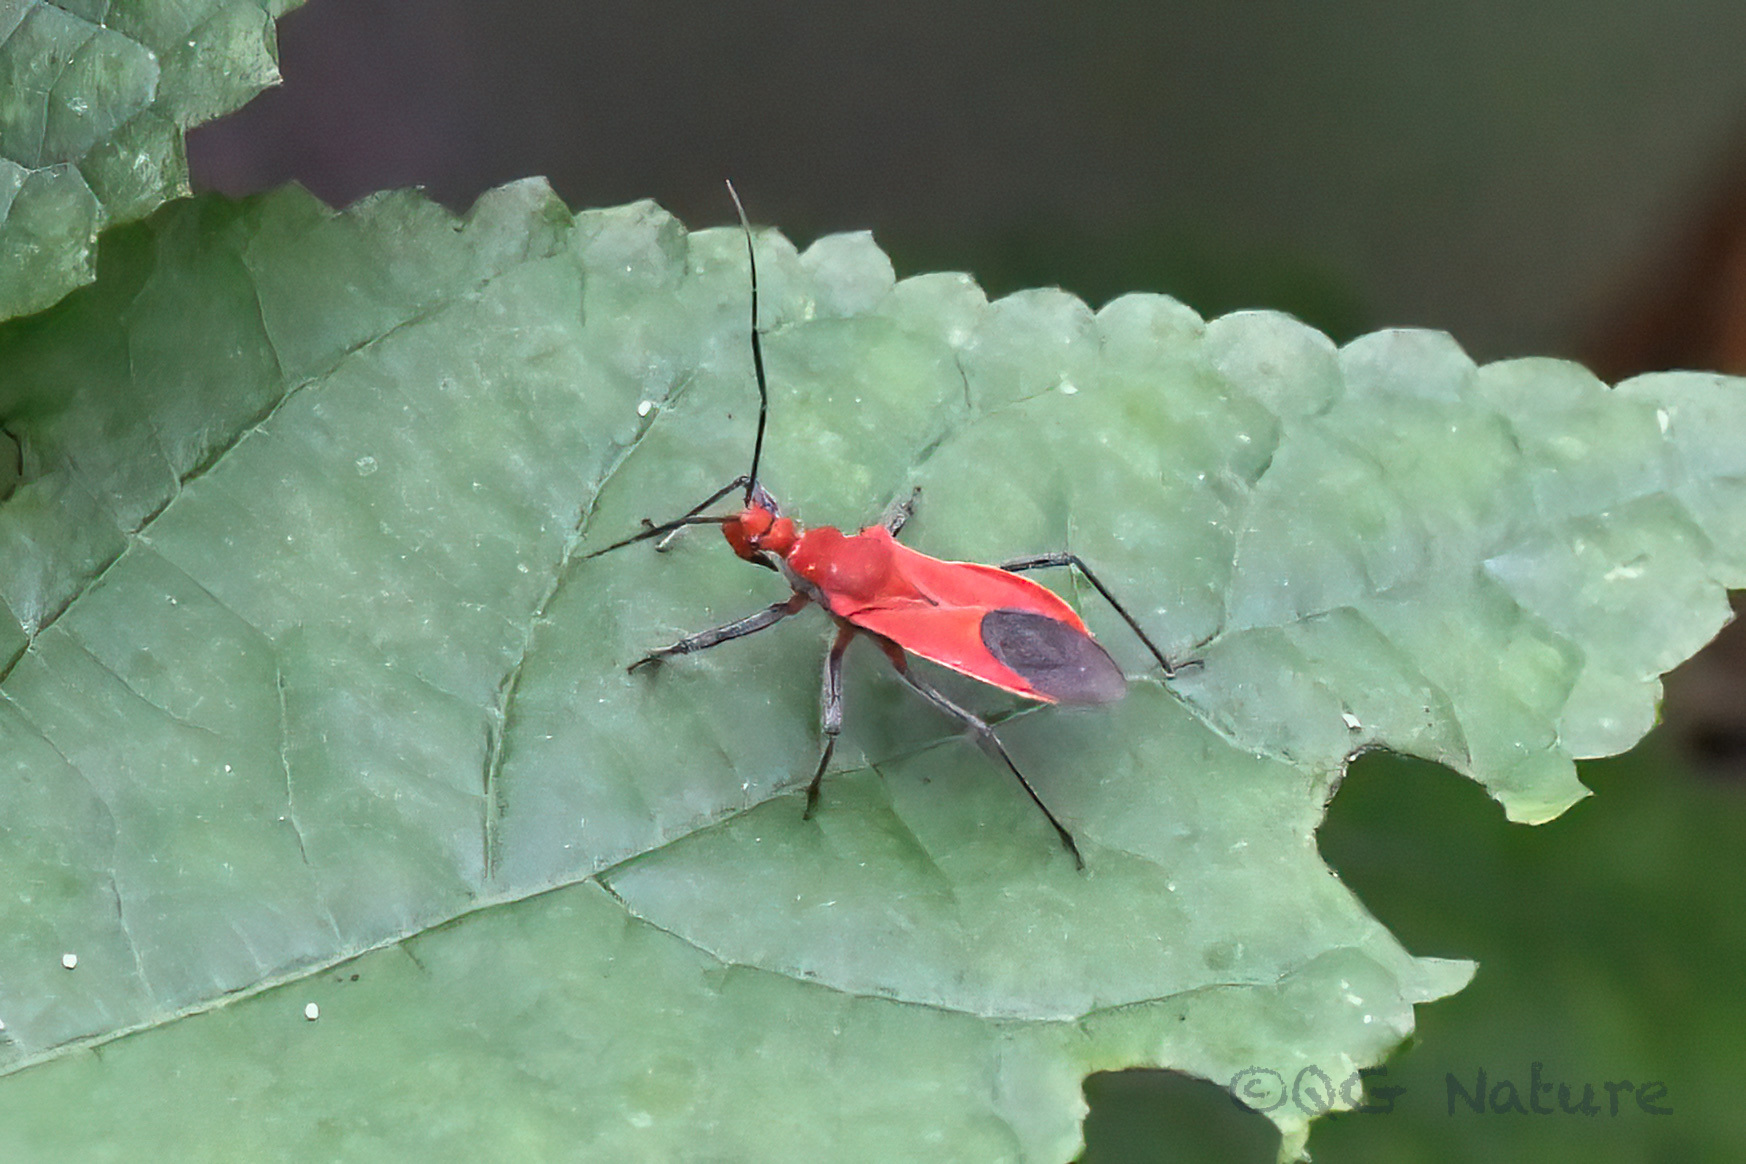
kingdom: Animalia
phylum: Arthropoda
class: Insecta
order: Hemiptera
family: Reduviidae
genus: Cutocoris
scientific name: Cutocoris
